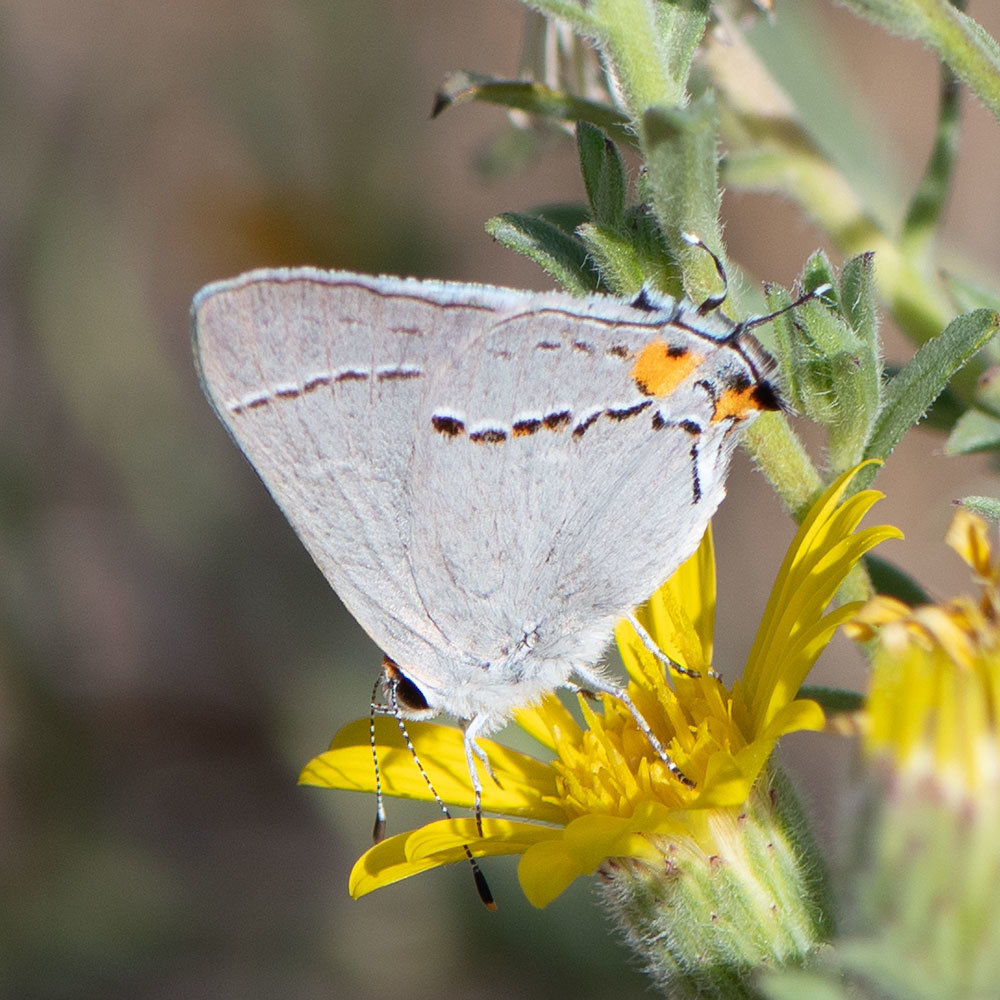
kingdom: Animalia
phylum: Arthropoda
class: Insecta
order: Lepidoptera
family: Lycaenidae
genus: Strymon
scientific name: Strymon melinus
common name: Gray hairstreak
